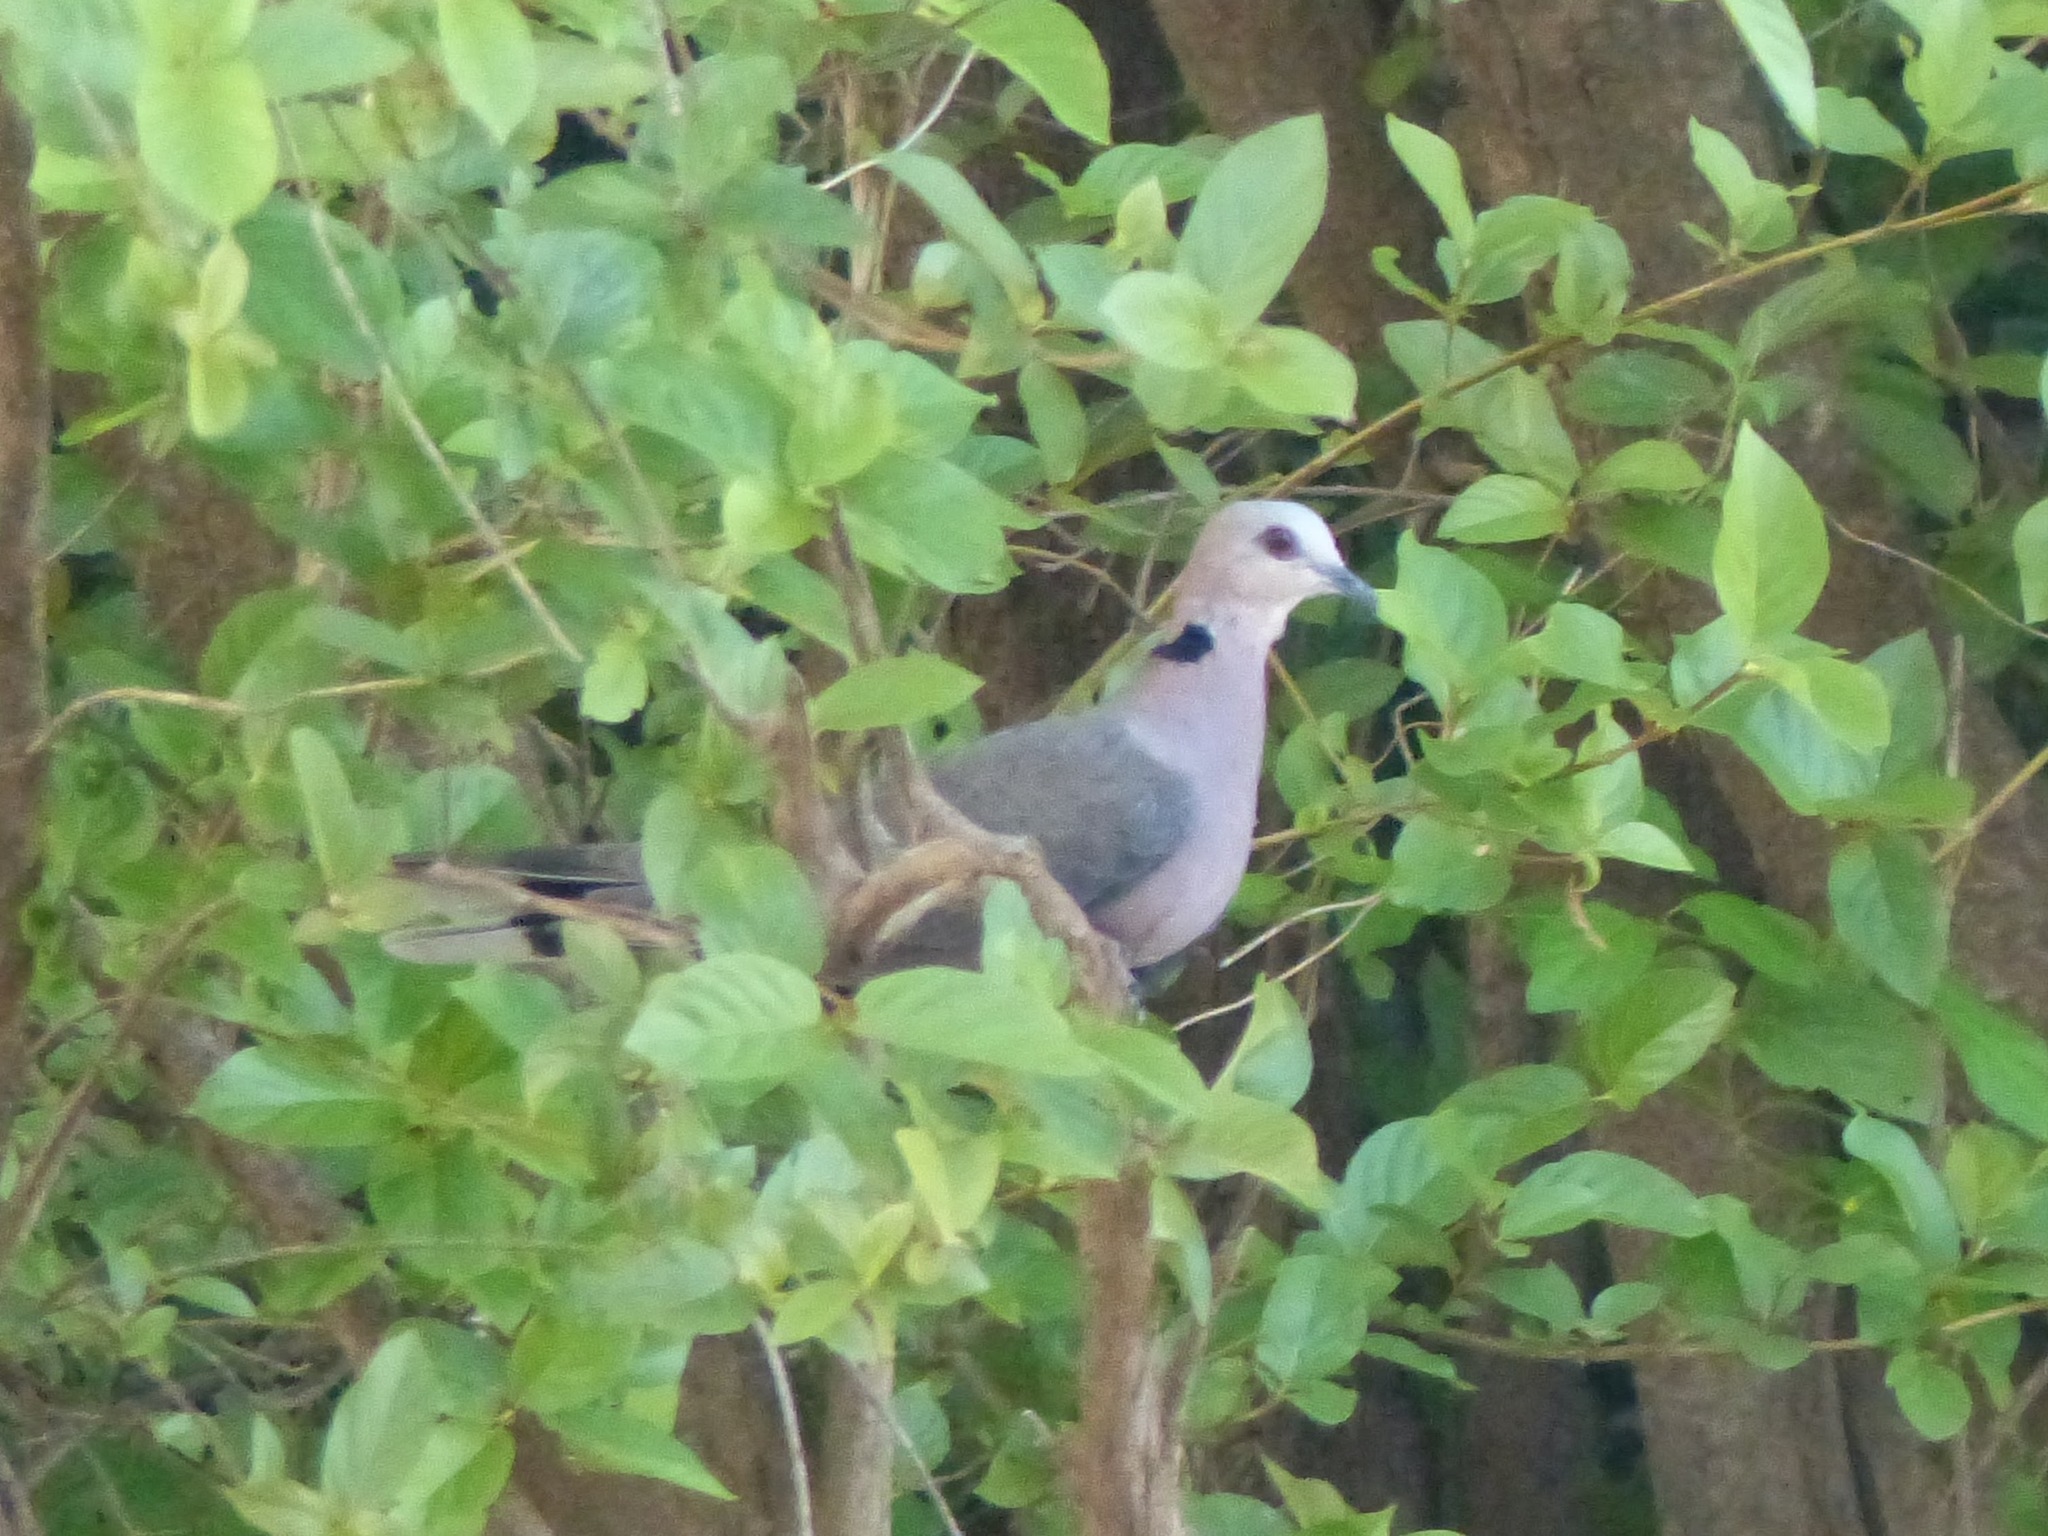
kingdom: Animalia
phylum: Chordata
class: Aves
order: Columbiformes
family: Columbidae
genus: Streptopelia
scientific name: Streptopelia semitorquata
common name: Red-eyed dove
